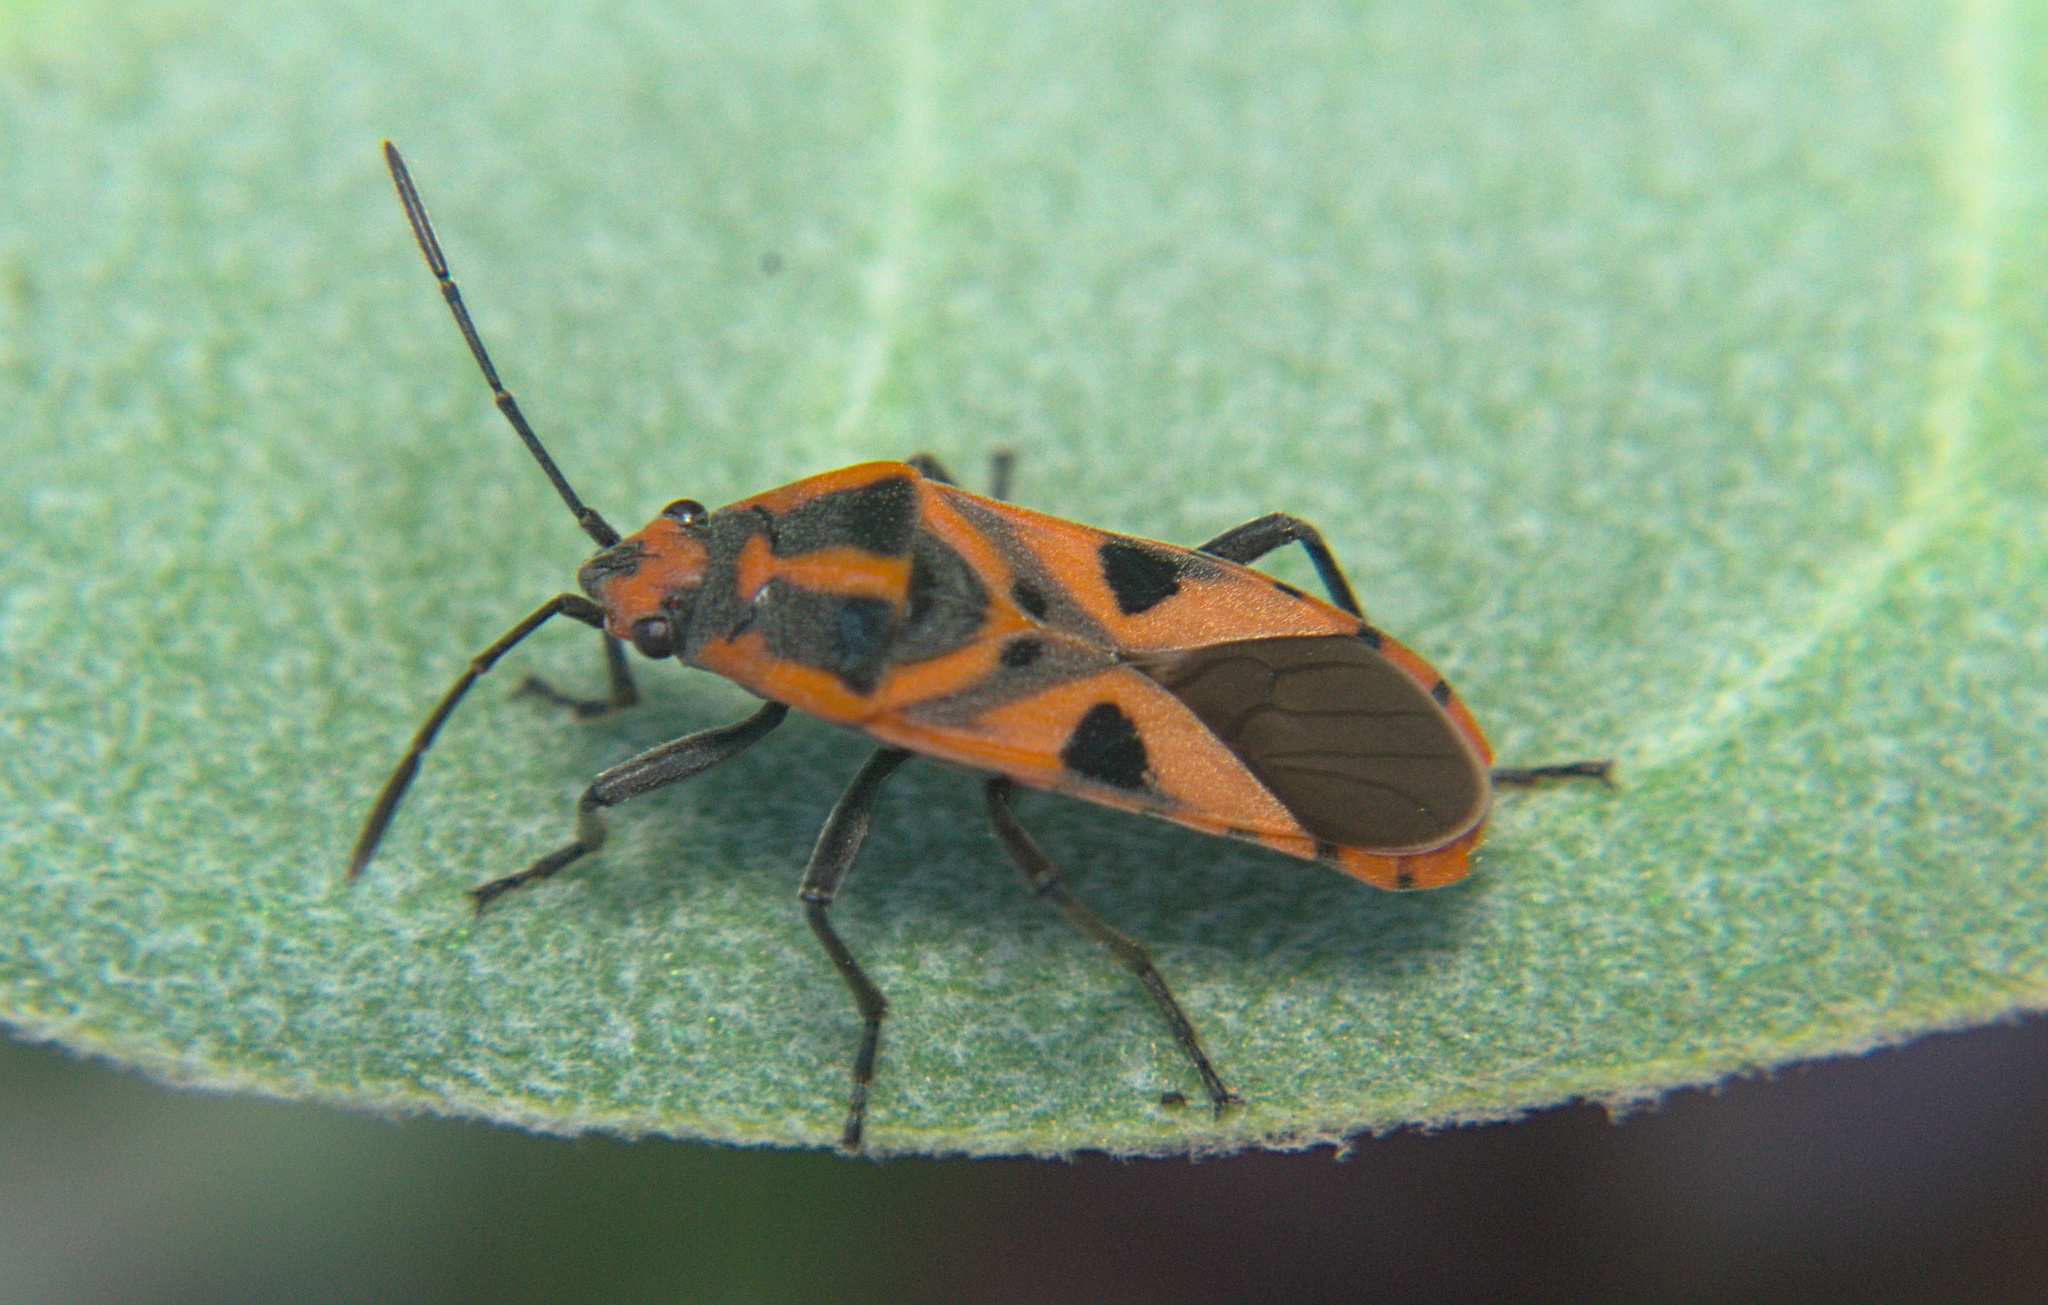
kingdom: Animalia
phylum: Arthropoda
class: Insecta
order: Hemiptera
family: Lygaeidae
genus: Spilostethus
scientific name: Spilostethus hospes
